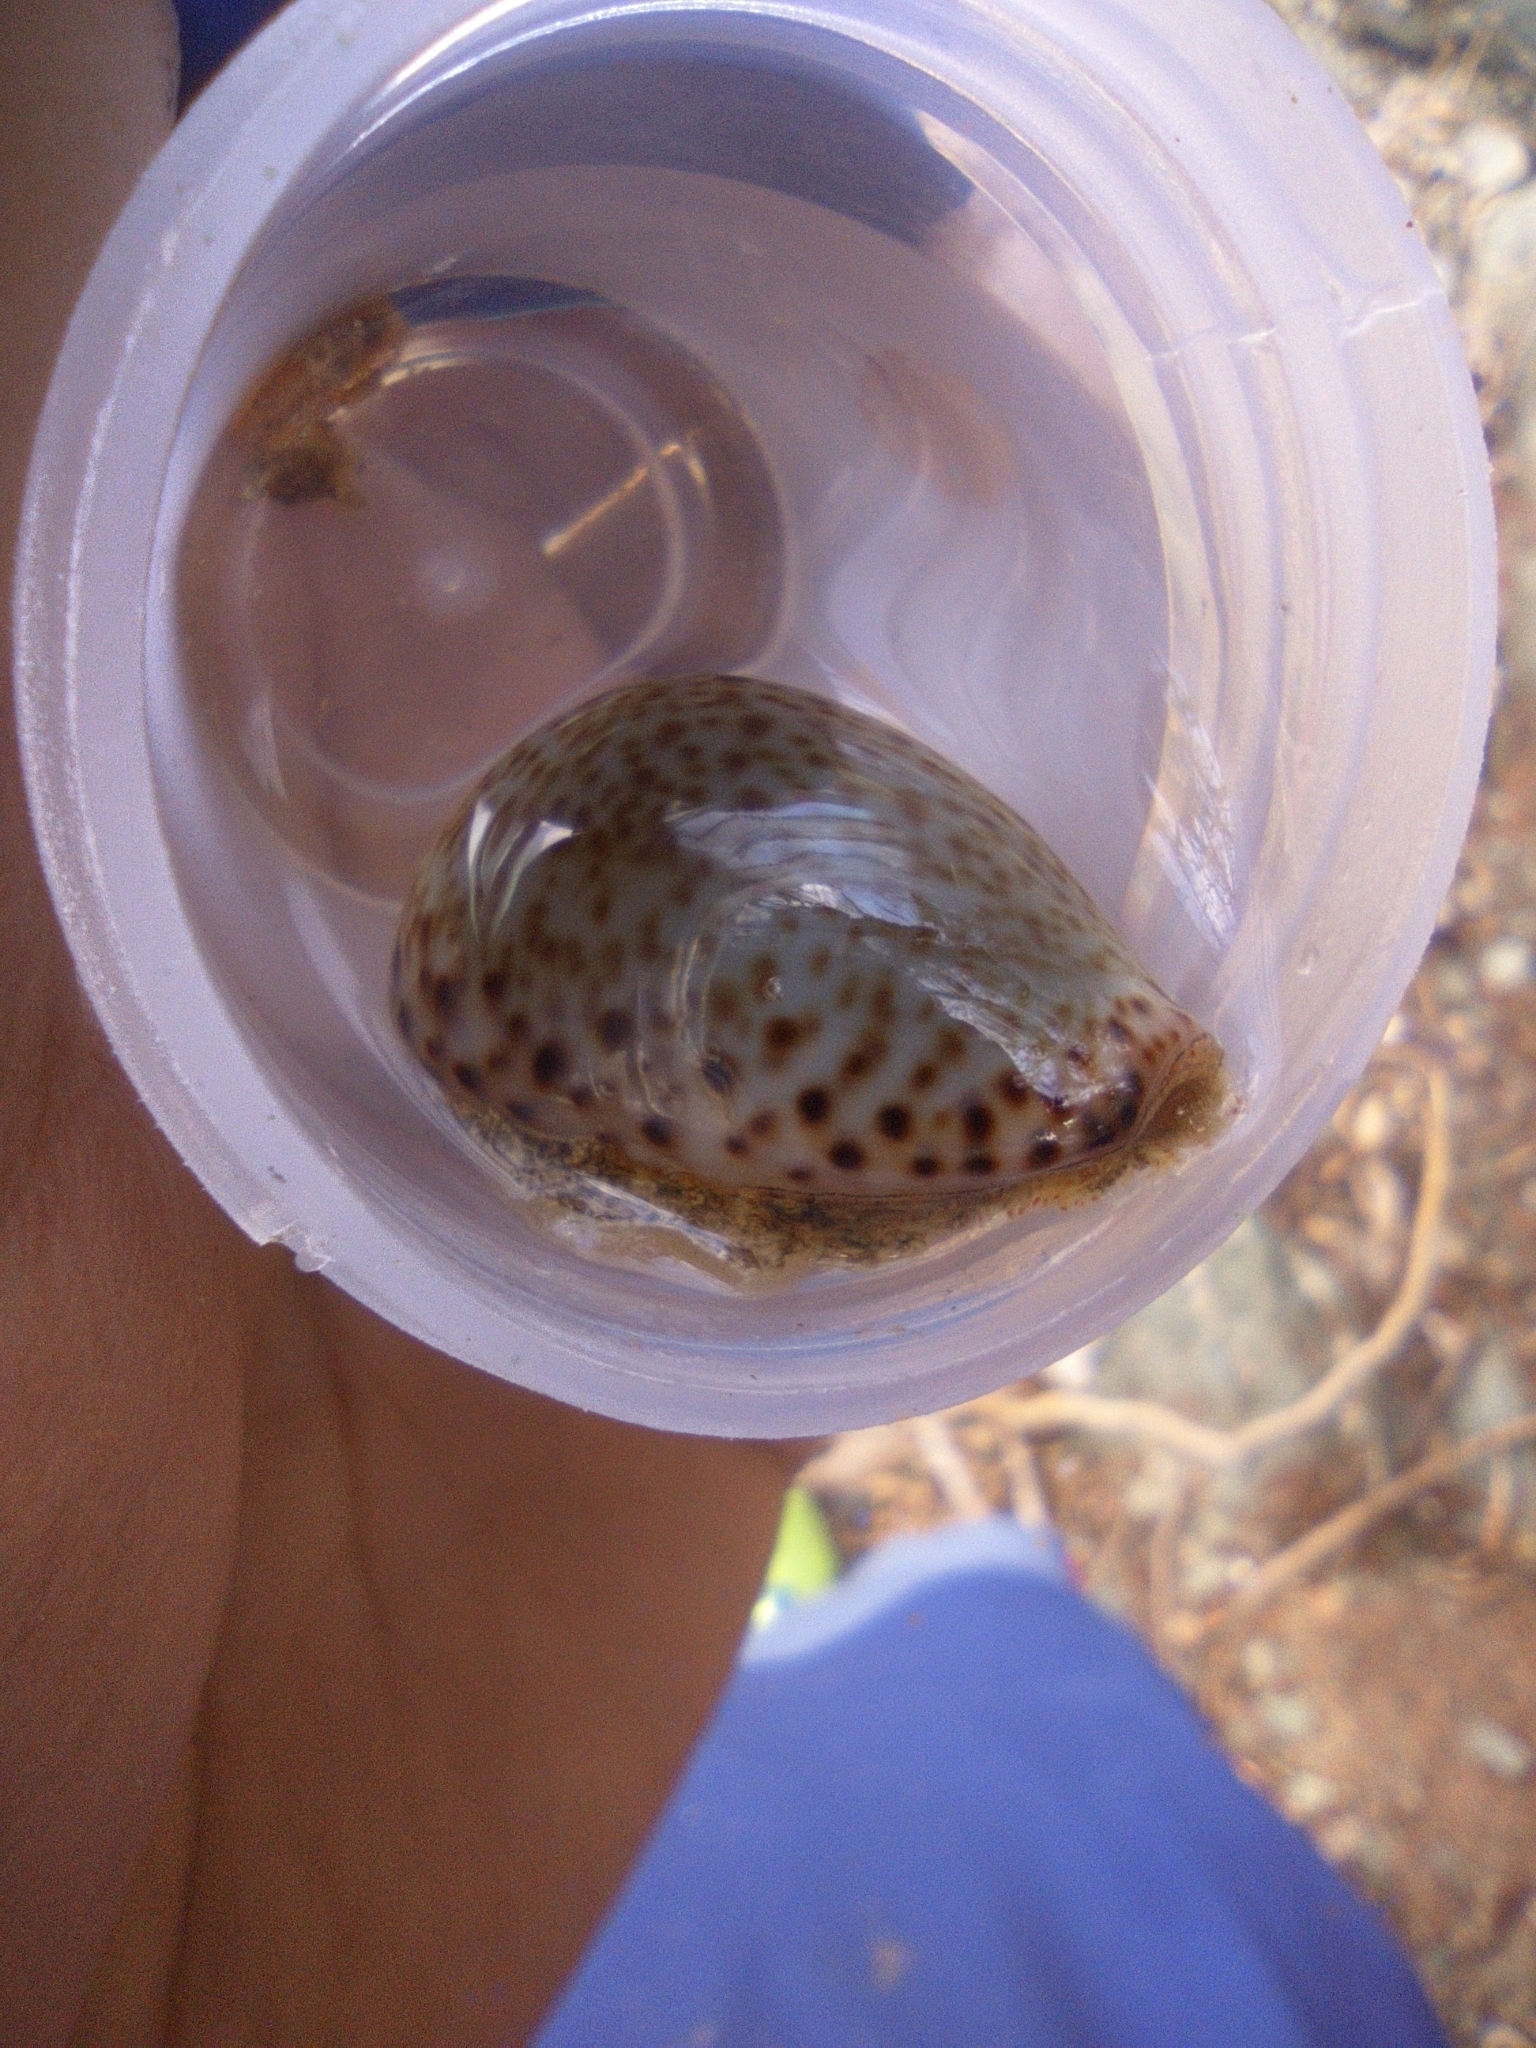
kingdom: Animalia
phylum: Mollusca
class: Gastropoda
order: Littorinimorpha
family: Cypraeidae
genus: Naria
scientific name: Naria turdus
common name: Thrush cowrie
